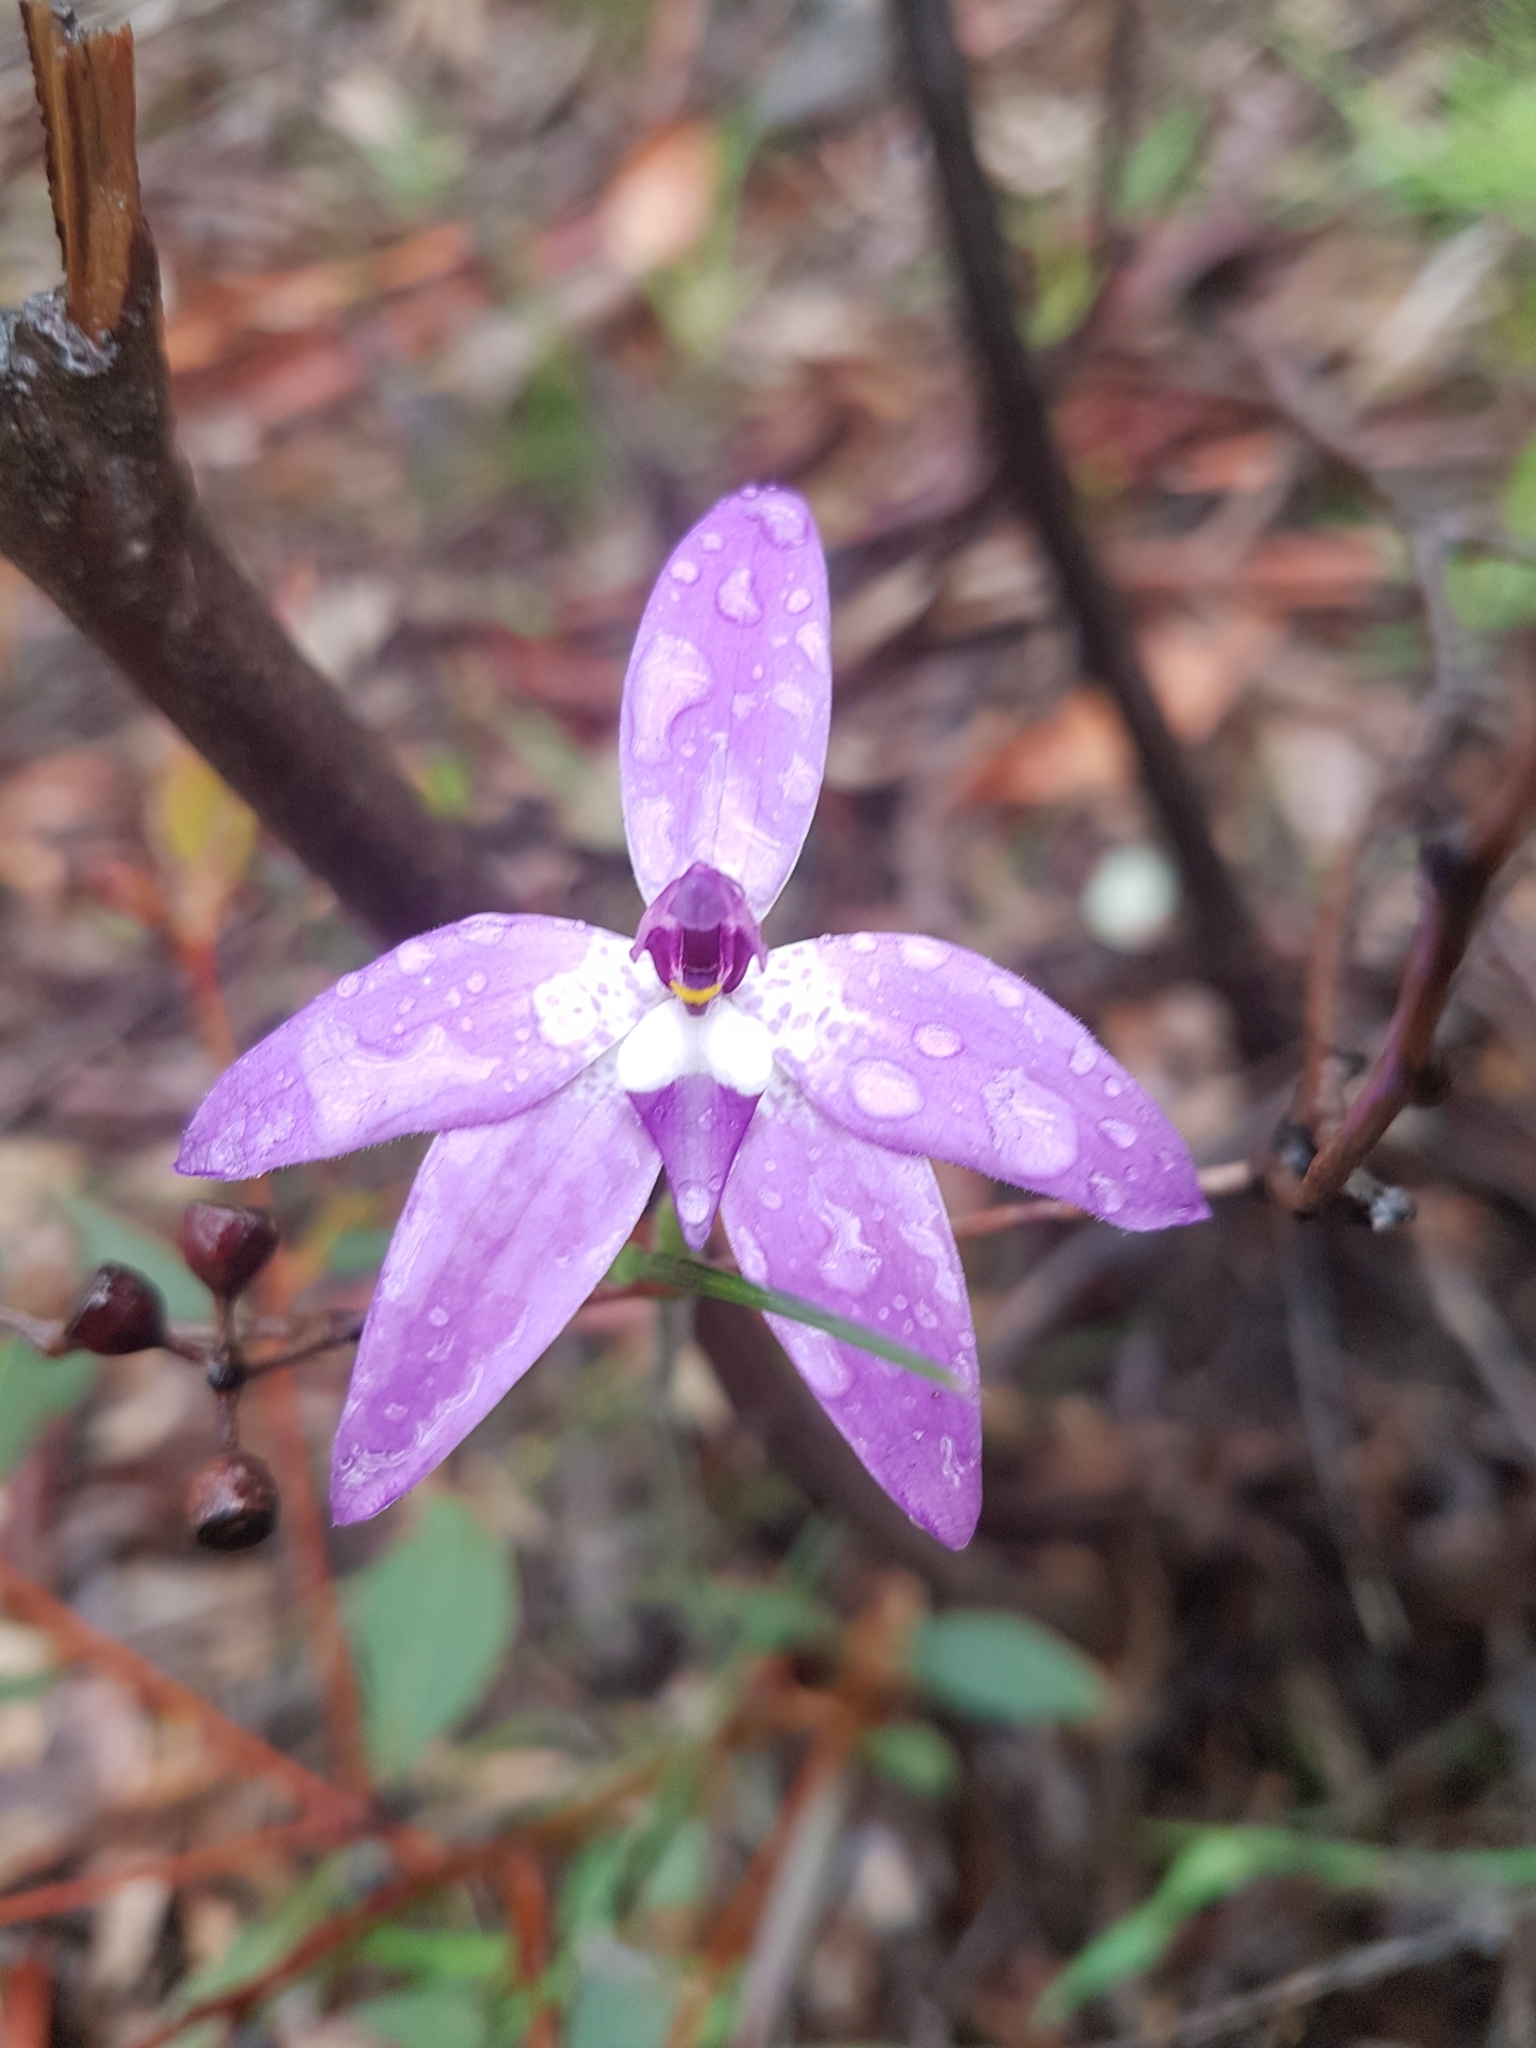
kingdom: Plantae
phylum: Tracheophyta
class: Liliopsida
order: Asparagales
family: Orchidaceae
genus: Caladenia
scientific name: Caladenia major
